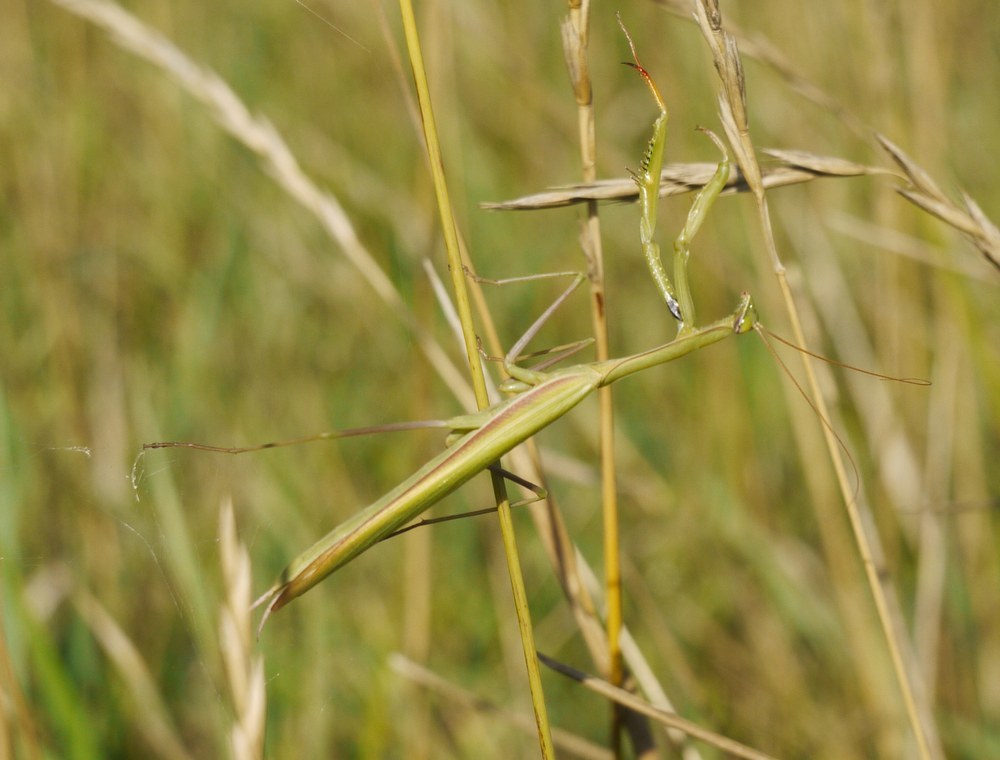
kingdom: Animalia
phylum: Arthropoda
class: Insecta
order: Mantodea
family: Mantidae
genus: Mantis
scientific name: Mantis religiosa
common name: Praying mantis
